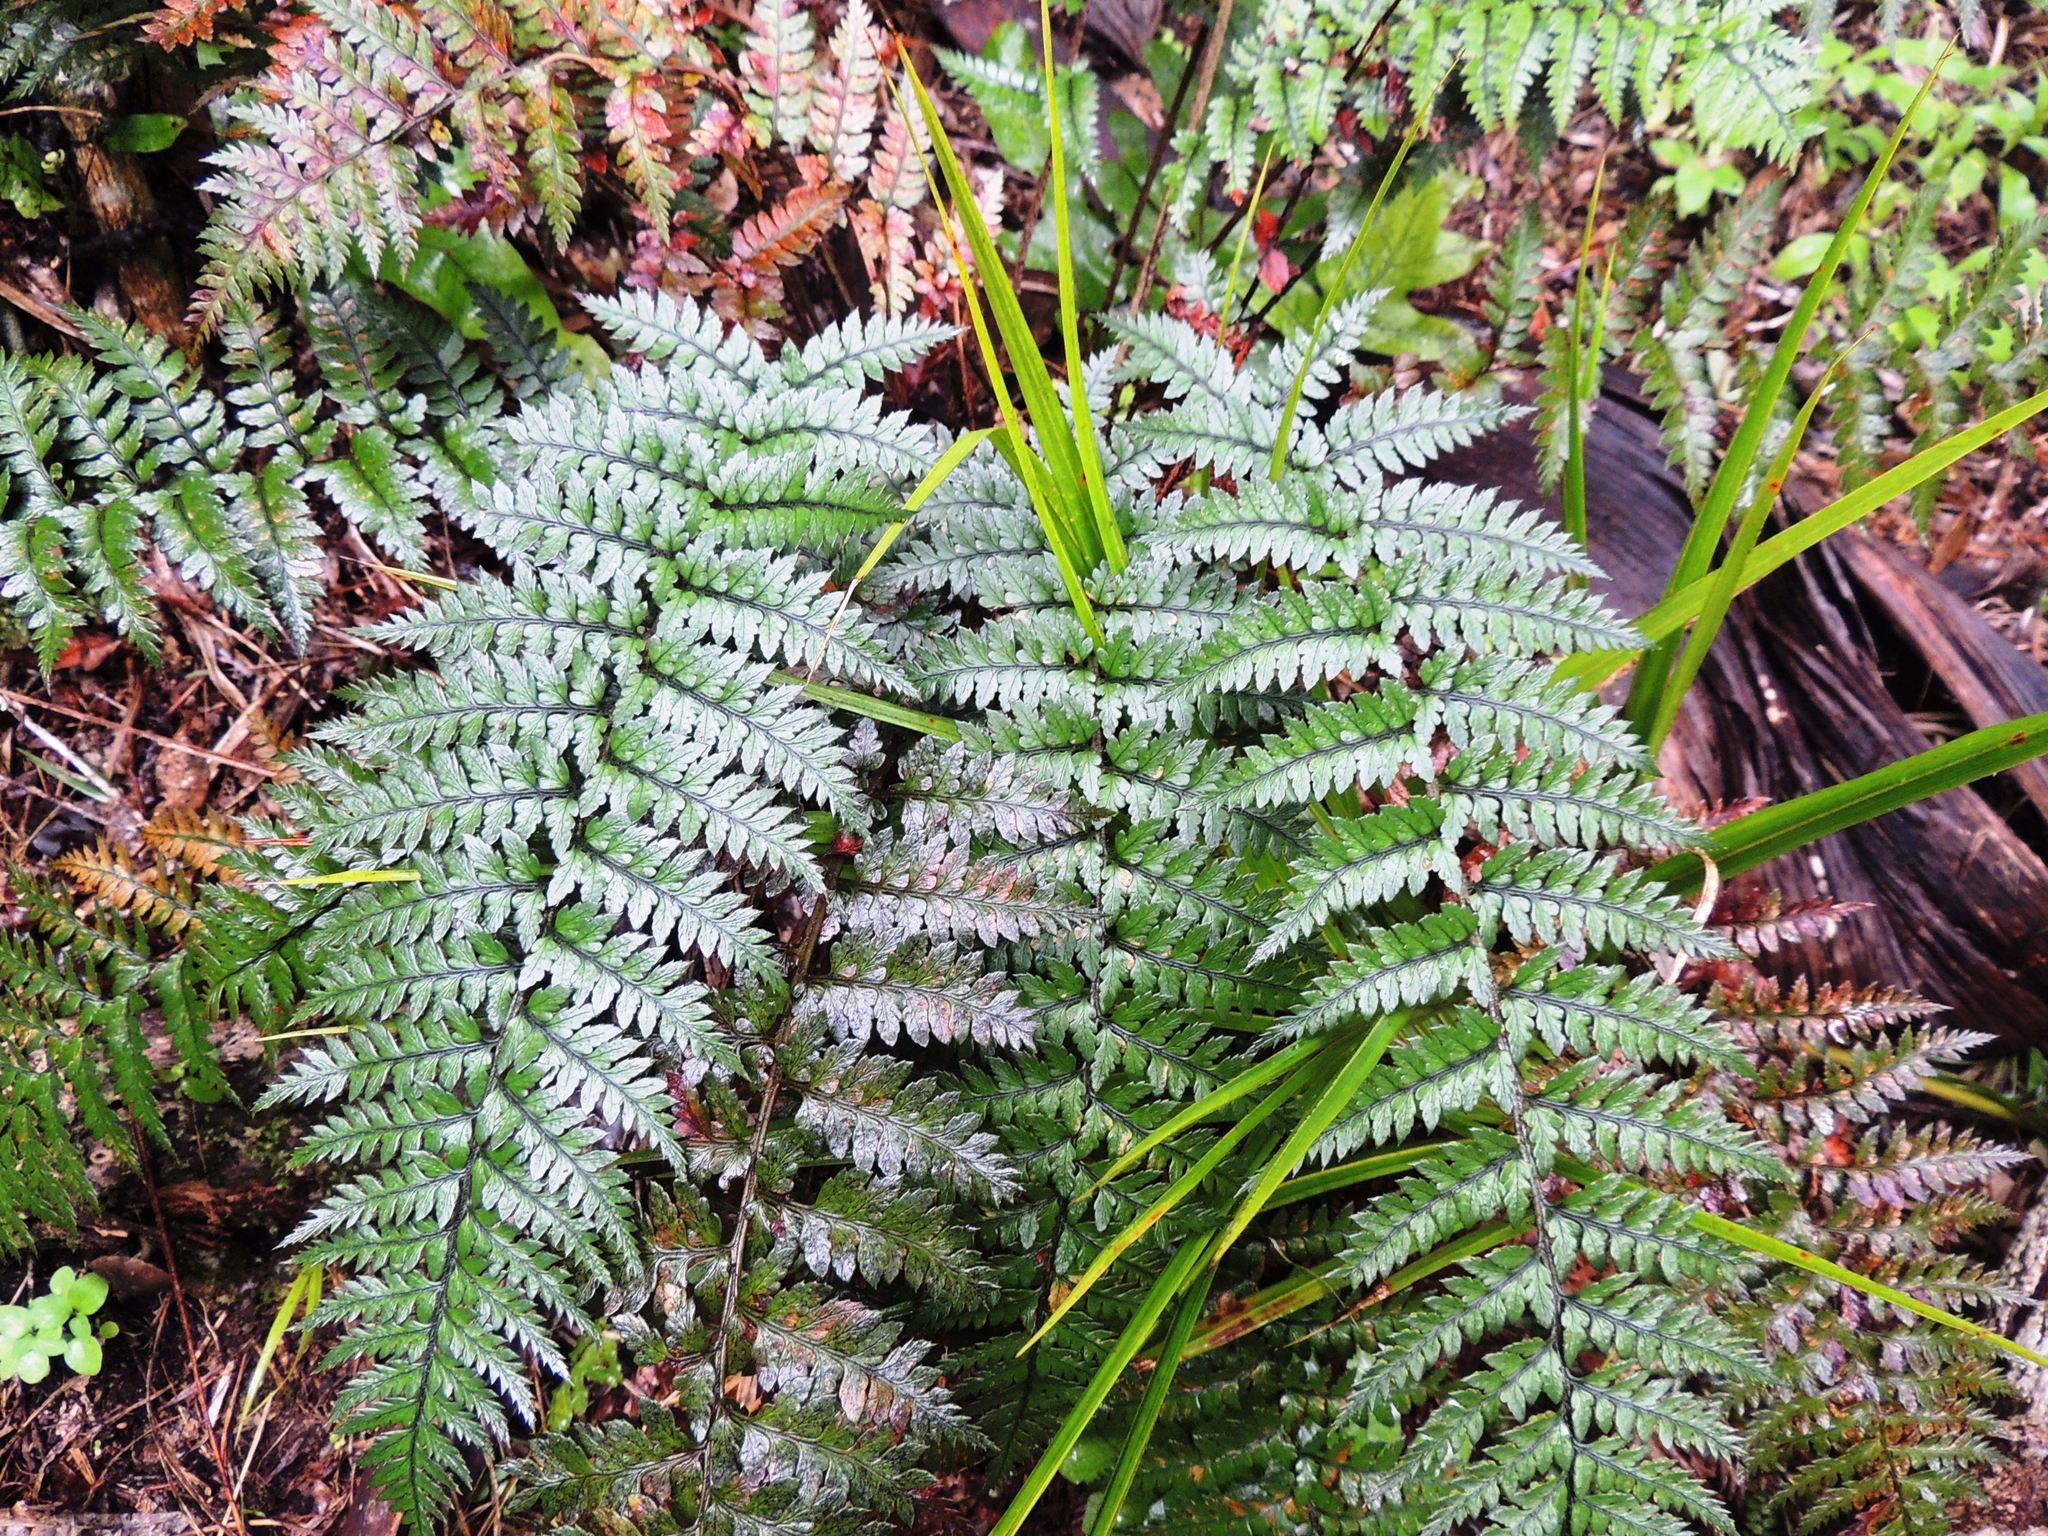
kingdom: Plantae
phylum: Tracheophyta
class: Polypodiopsida
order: Polypodiales
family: Dryopteridaceae
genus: Polystichum
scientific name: Polystichum neozelandicum
